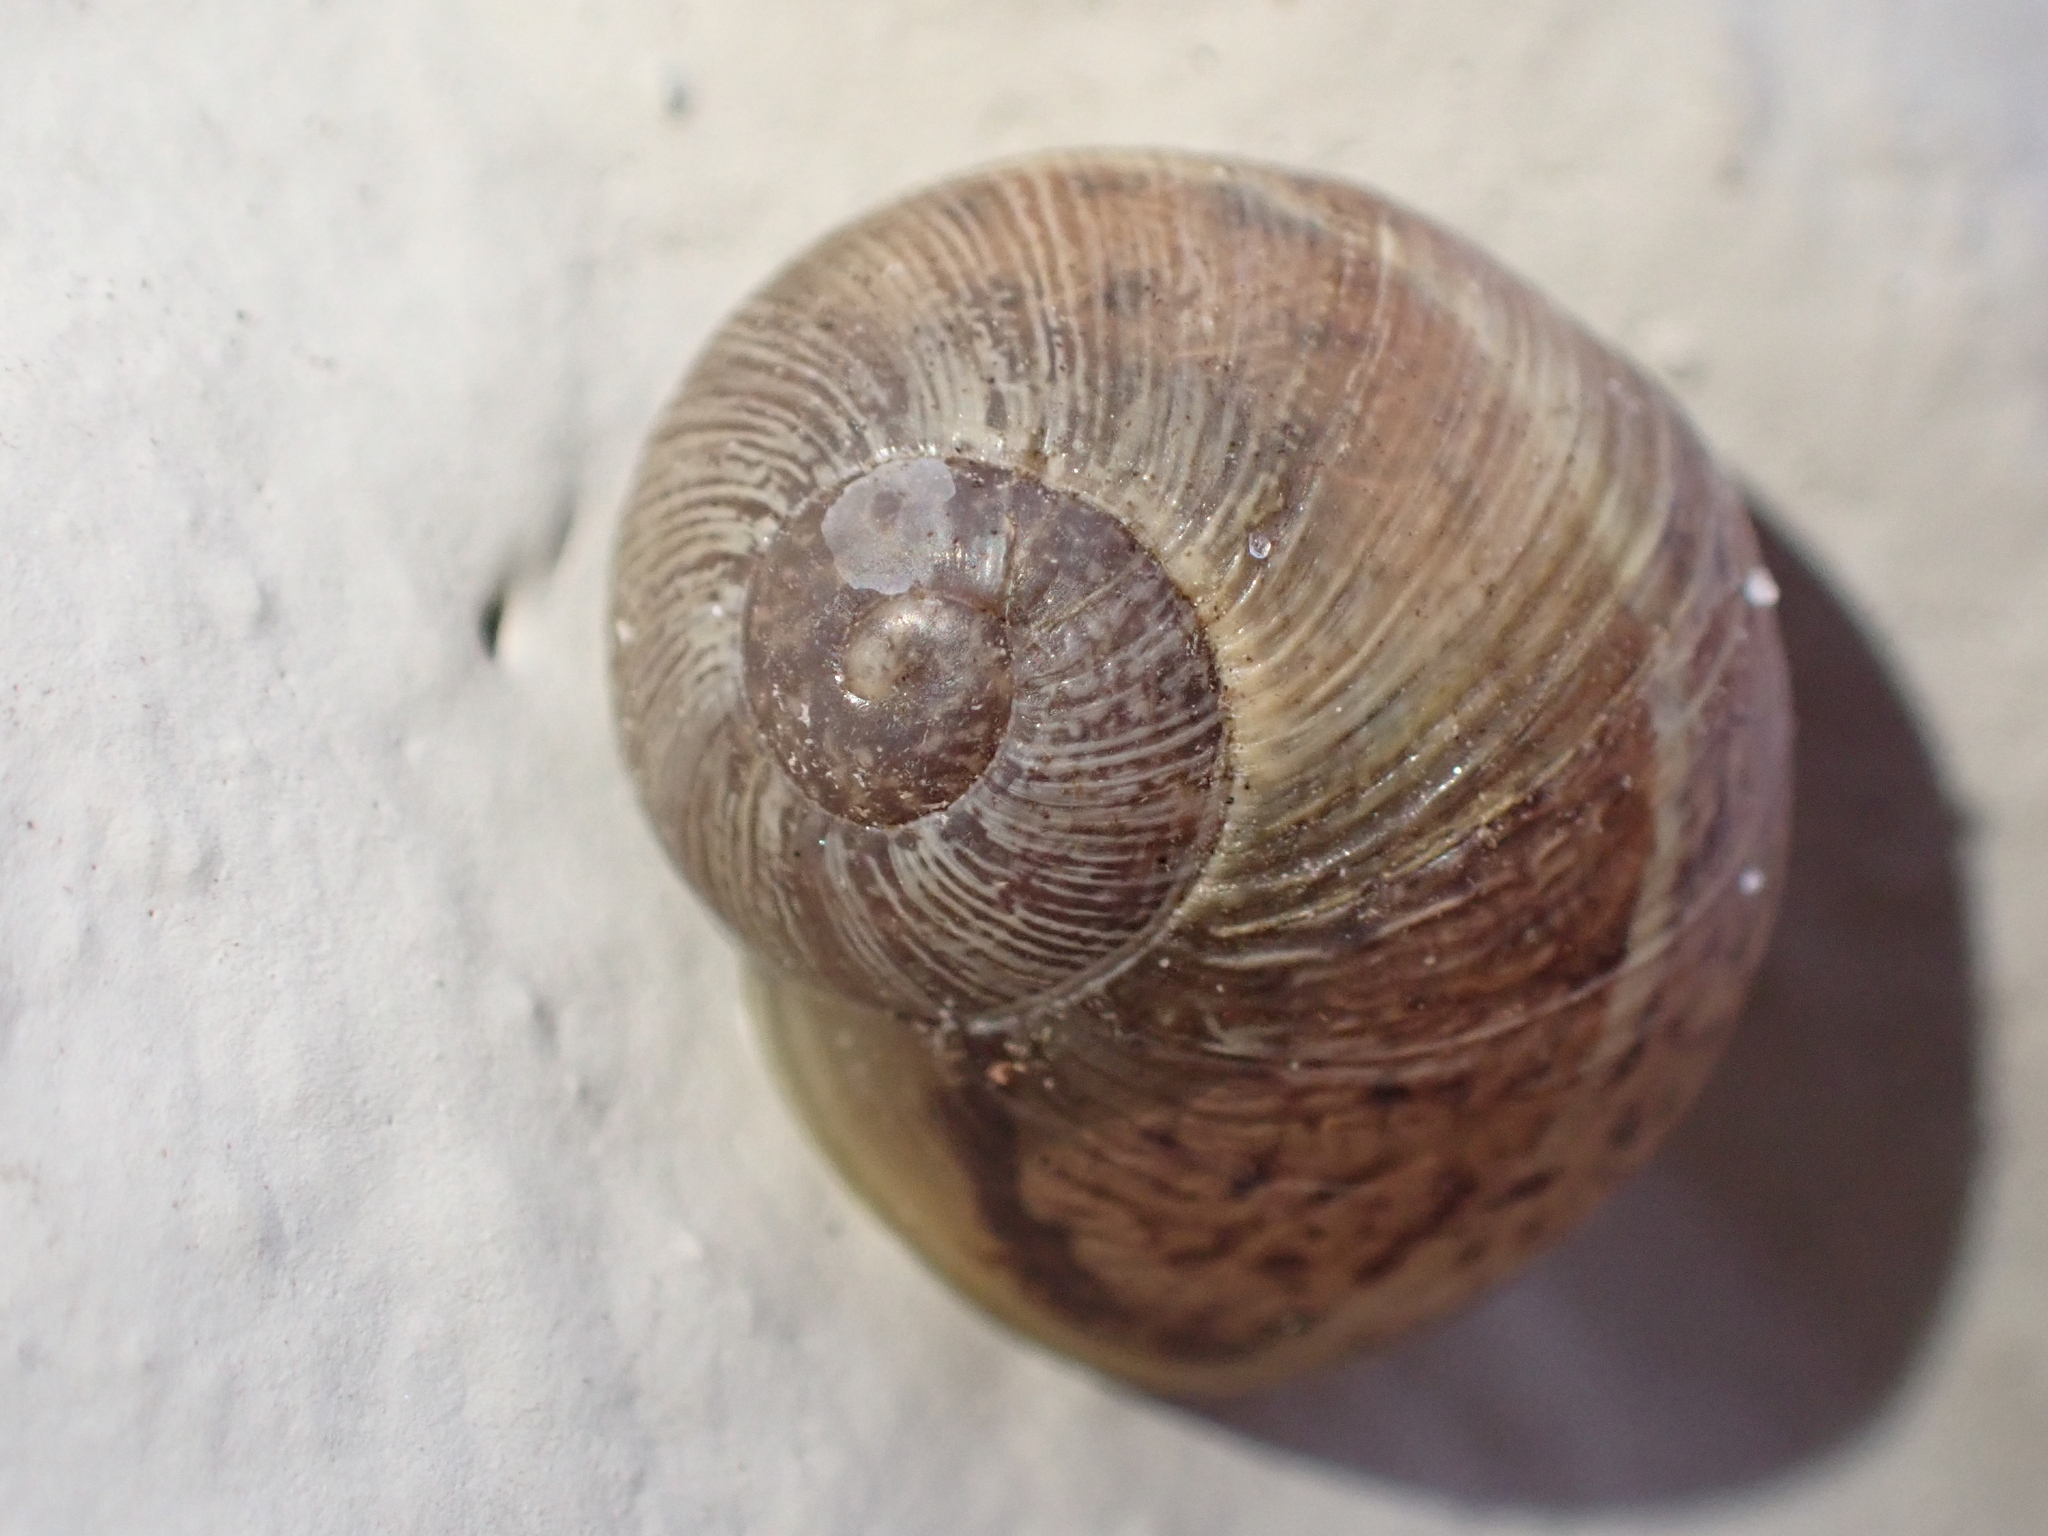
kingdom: Animalia
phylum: Mollusca
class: Gastropoda
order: Stylommatophora
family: Helicidae
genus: Cornu
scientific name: Cornu aspersum
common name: Brown garden snail
